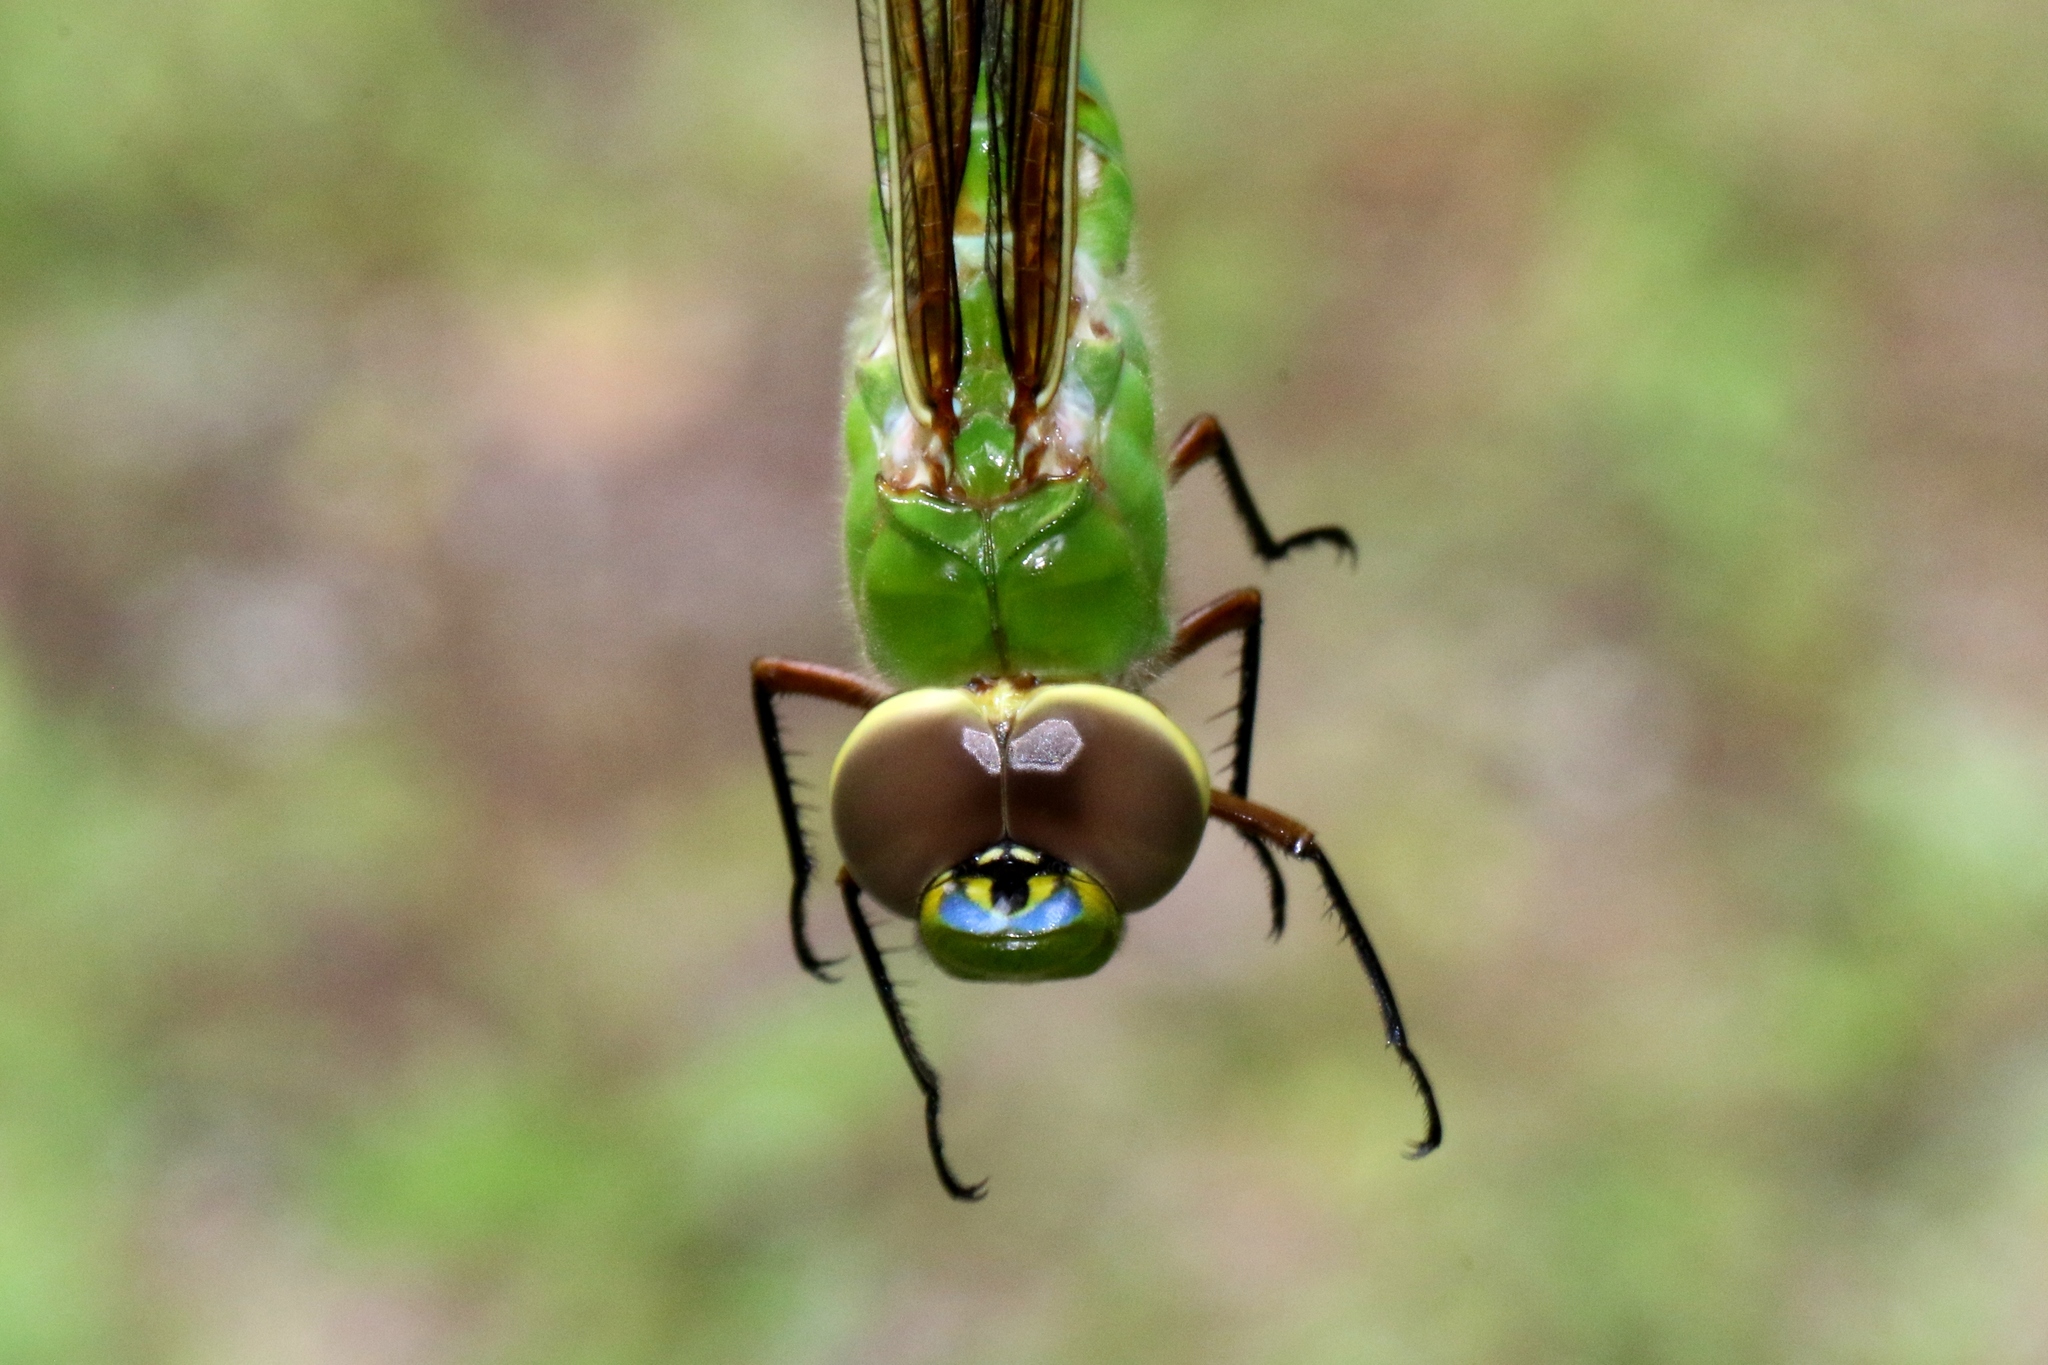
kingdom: Animalia
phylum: Arthropoda
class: Insecta
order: Odonata
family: Aeshnidae
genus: Anax
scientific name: Anax junius
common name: Common green darner
